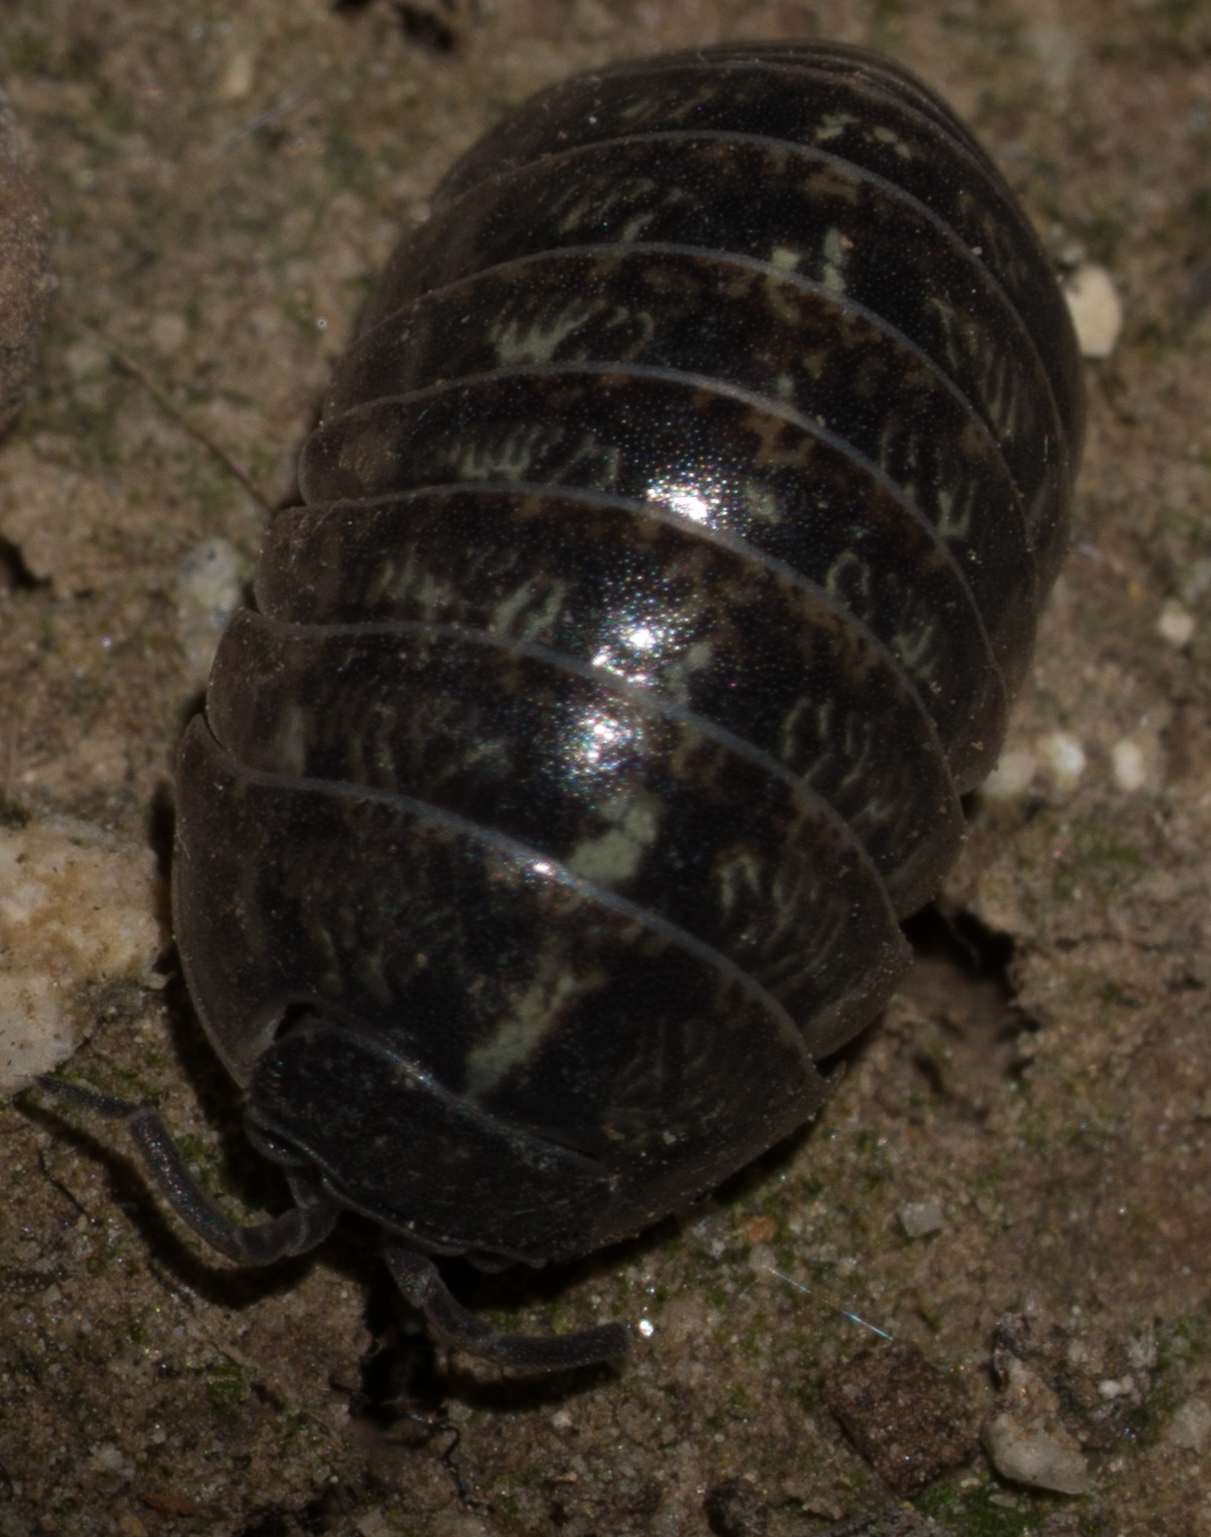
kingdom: Animalia
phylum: Arthropoda
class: Malacostraca
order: Isopoda
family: Armadillidiidae
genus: Armadillidium
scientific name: Armadillidium vulgare
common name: Common pill woodlouse
